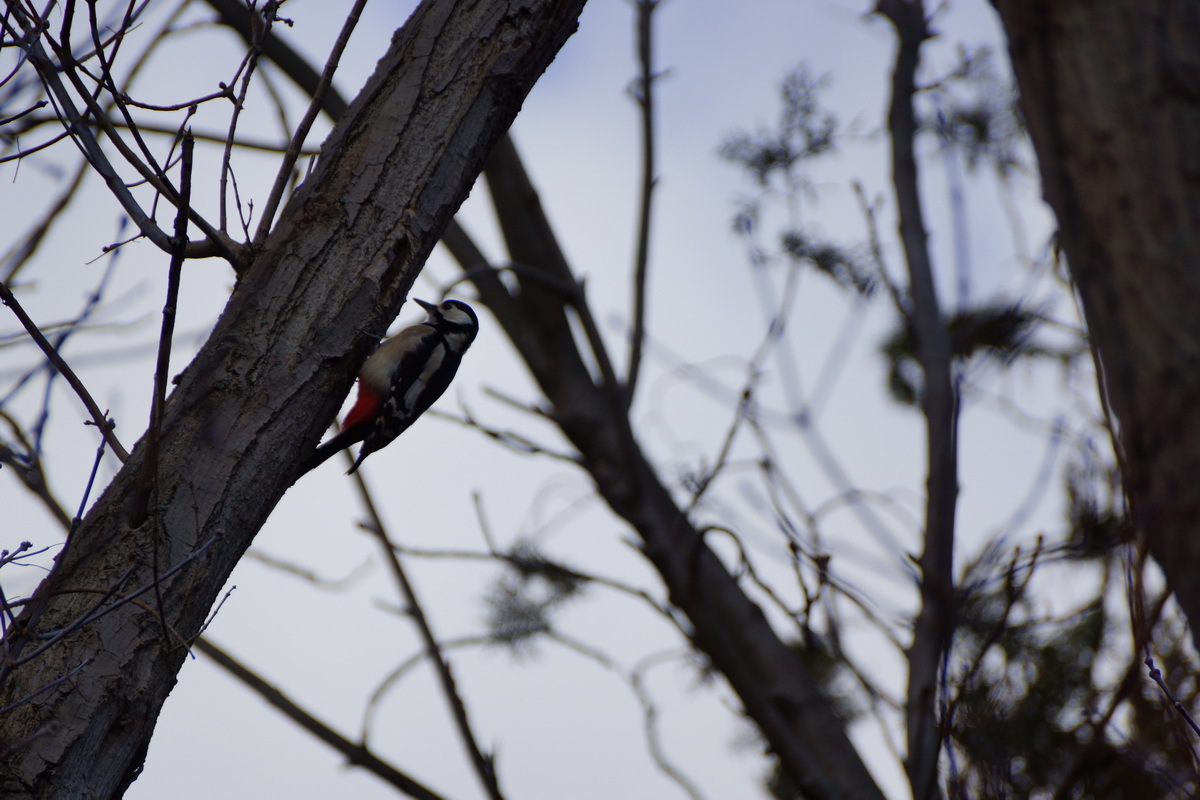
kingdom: Animalia
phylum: Chordata
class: Aves
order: Piciformes
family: Picidae
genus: Dendrocopos
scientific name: Dendrocopos major
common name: Great spotted woodpecker
